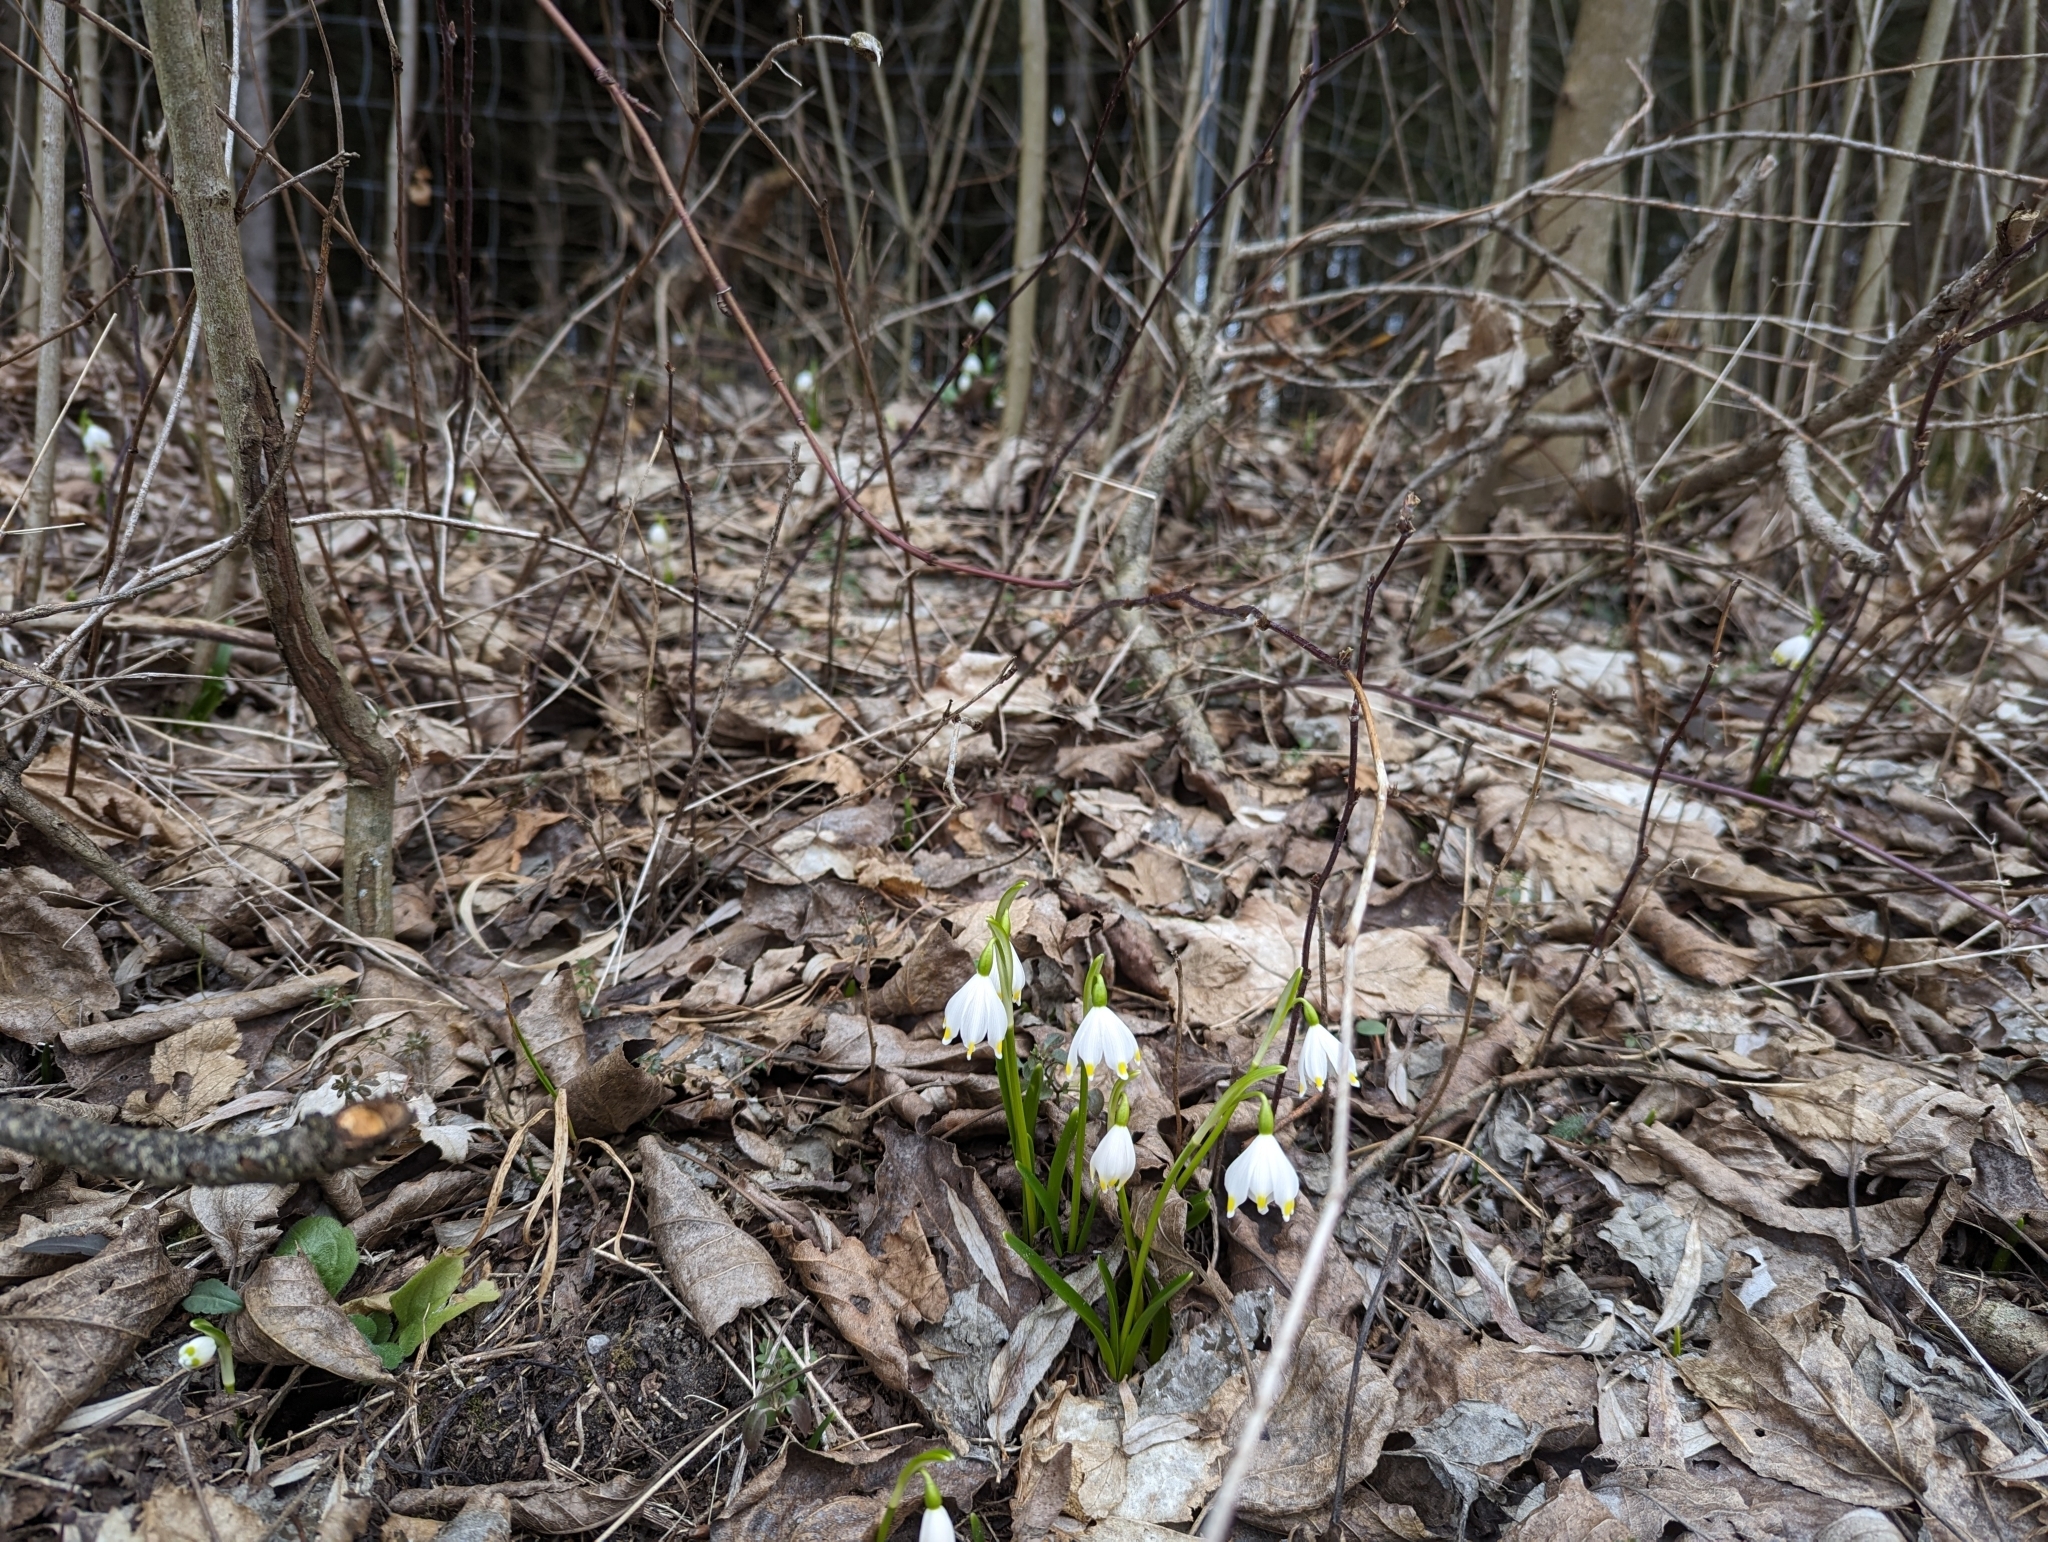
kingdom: Plantae
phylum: Tracheophyta
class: Liliopsida
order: Asparagales
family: Amaryllidaceae
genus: Leucojum
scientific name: Leucojum vernum
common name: Spring snowflake
